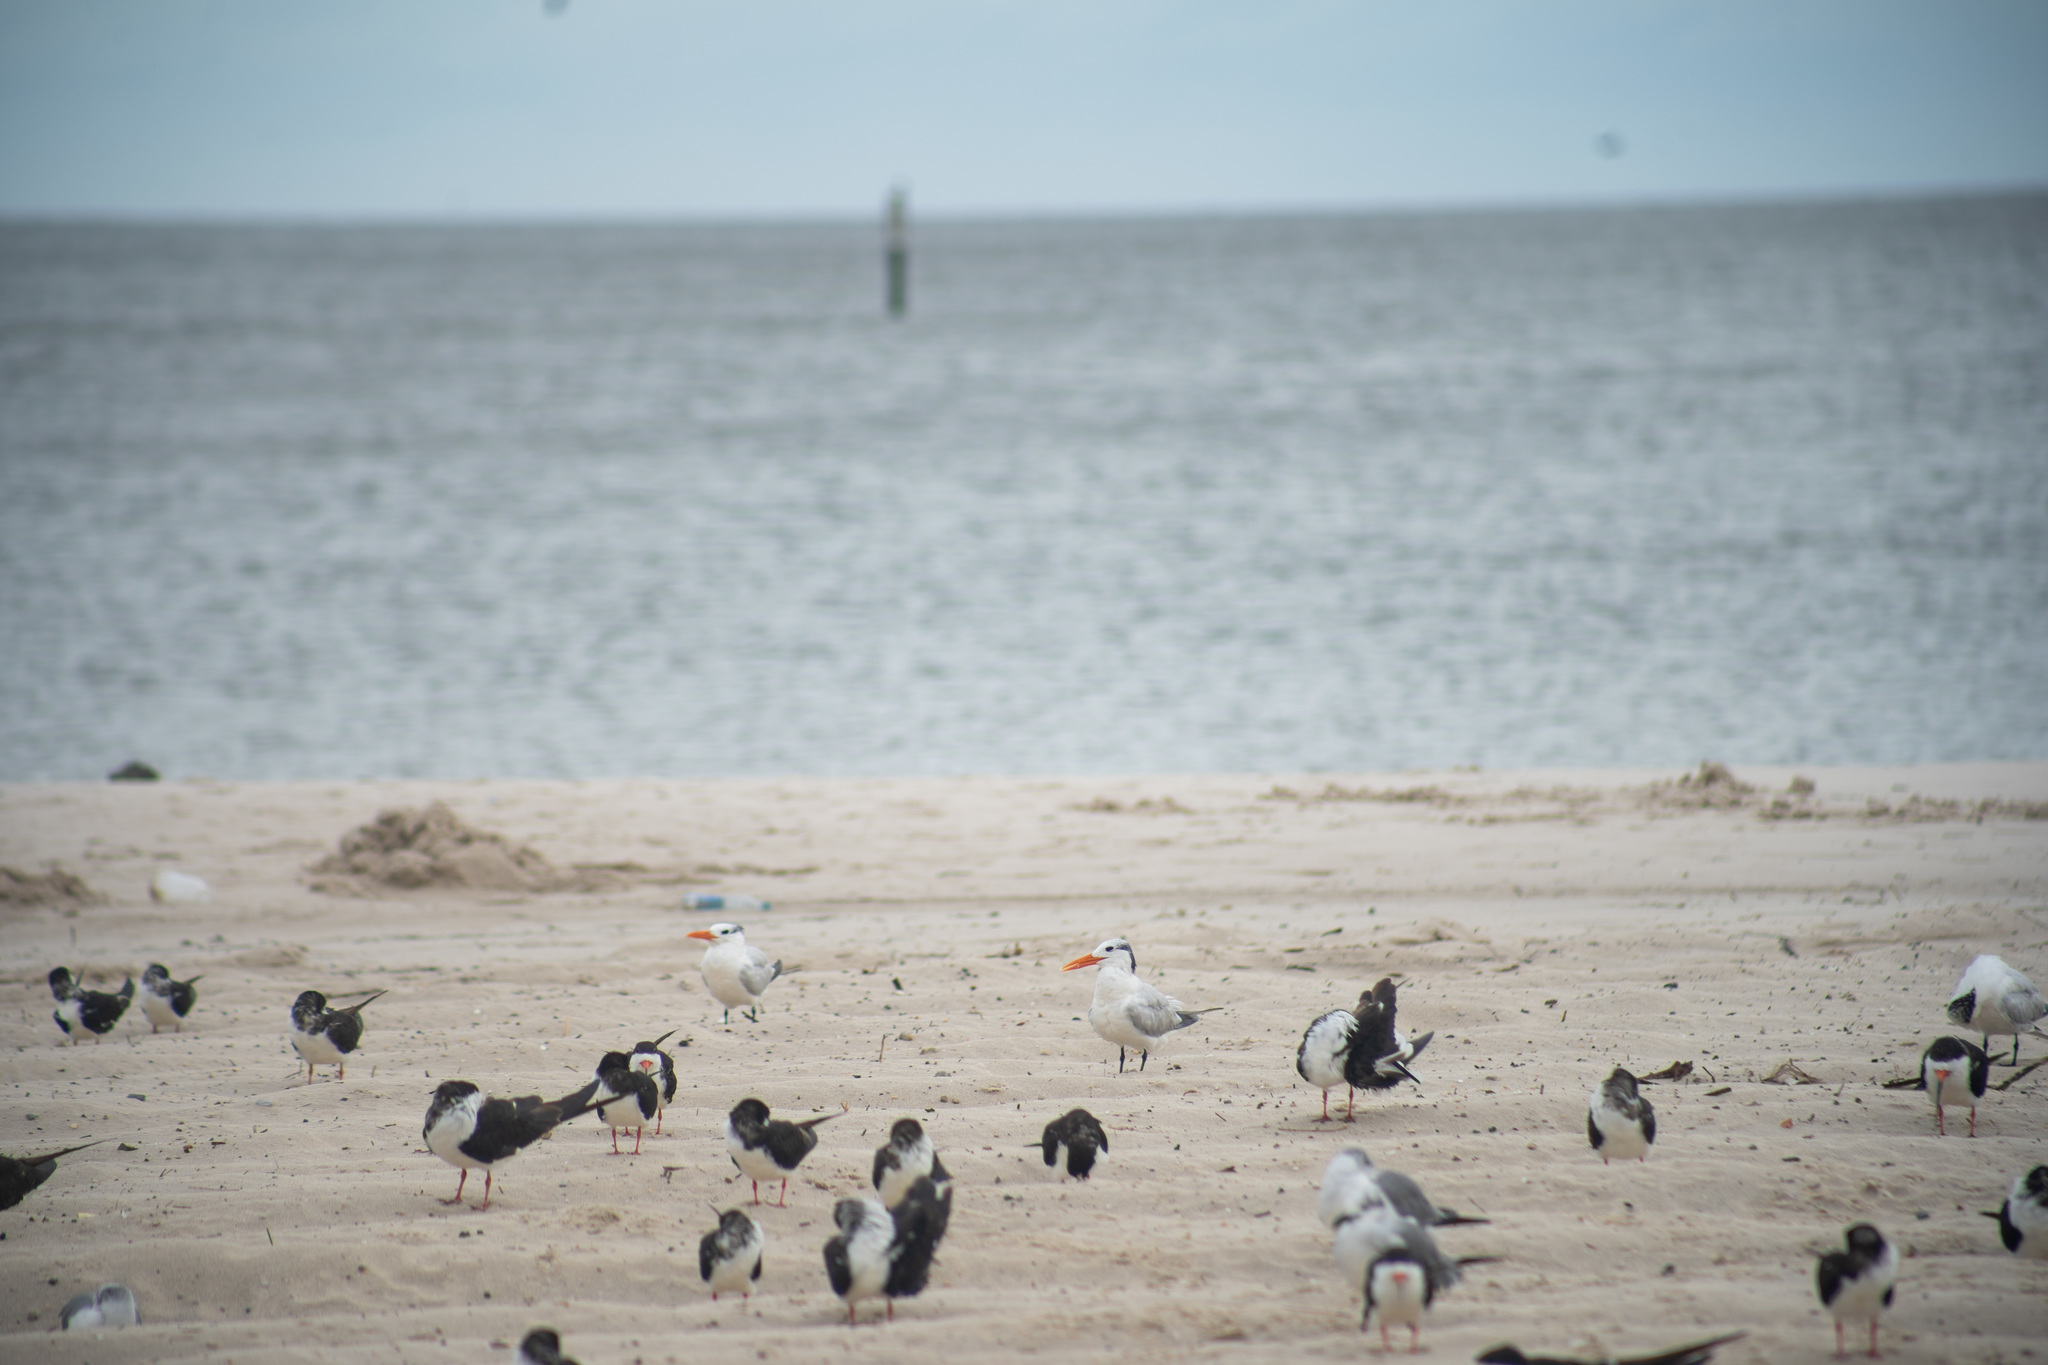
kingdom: Animalia
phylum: Chordata
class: Aves
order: Charadriiformes
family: Laridae
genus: Thalasseus
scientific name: Thalasseus maximus
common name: Royal tern
